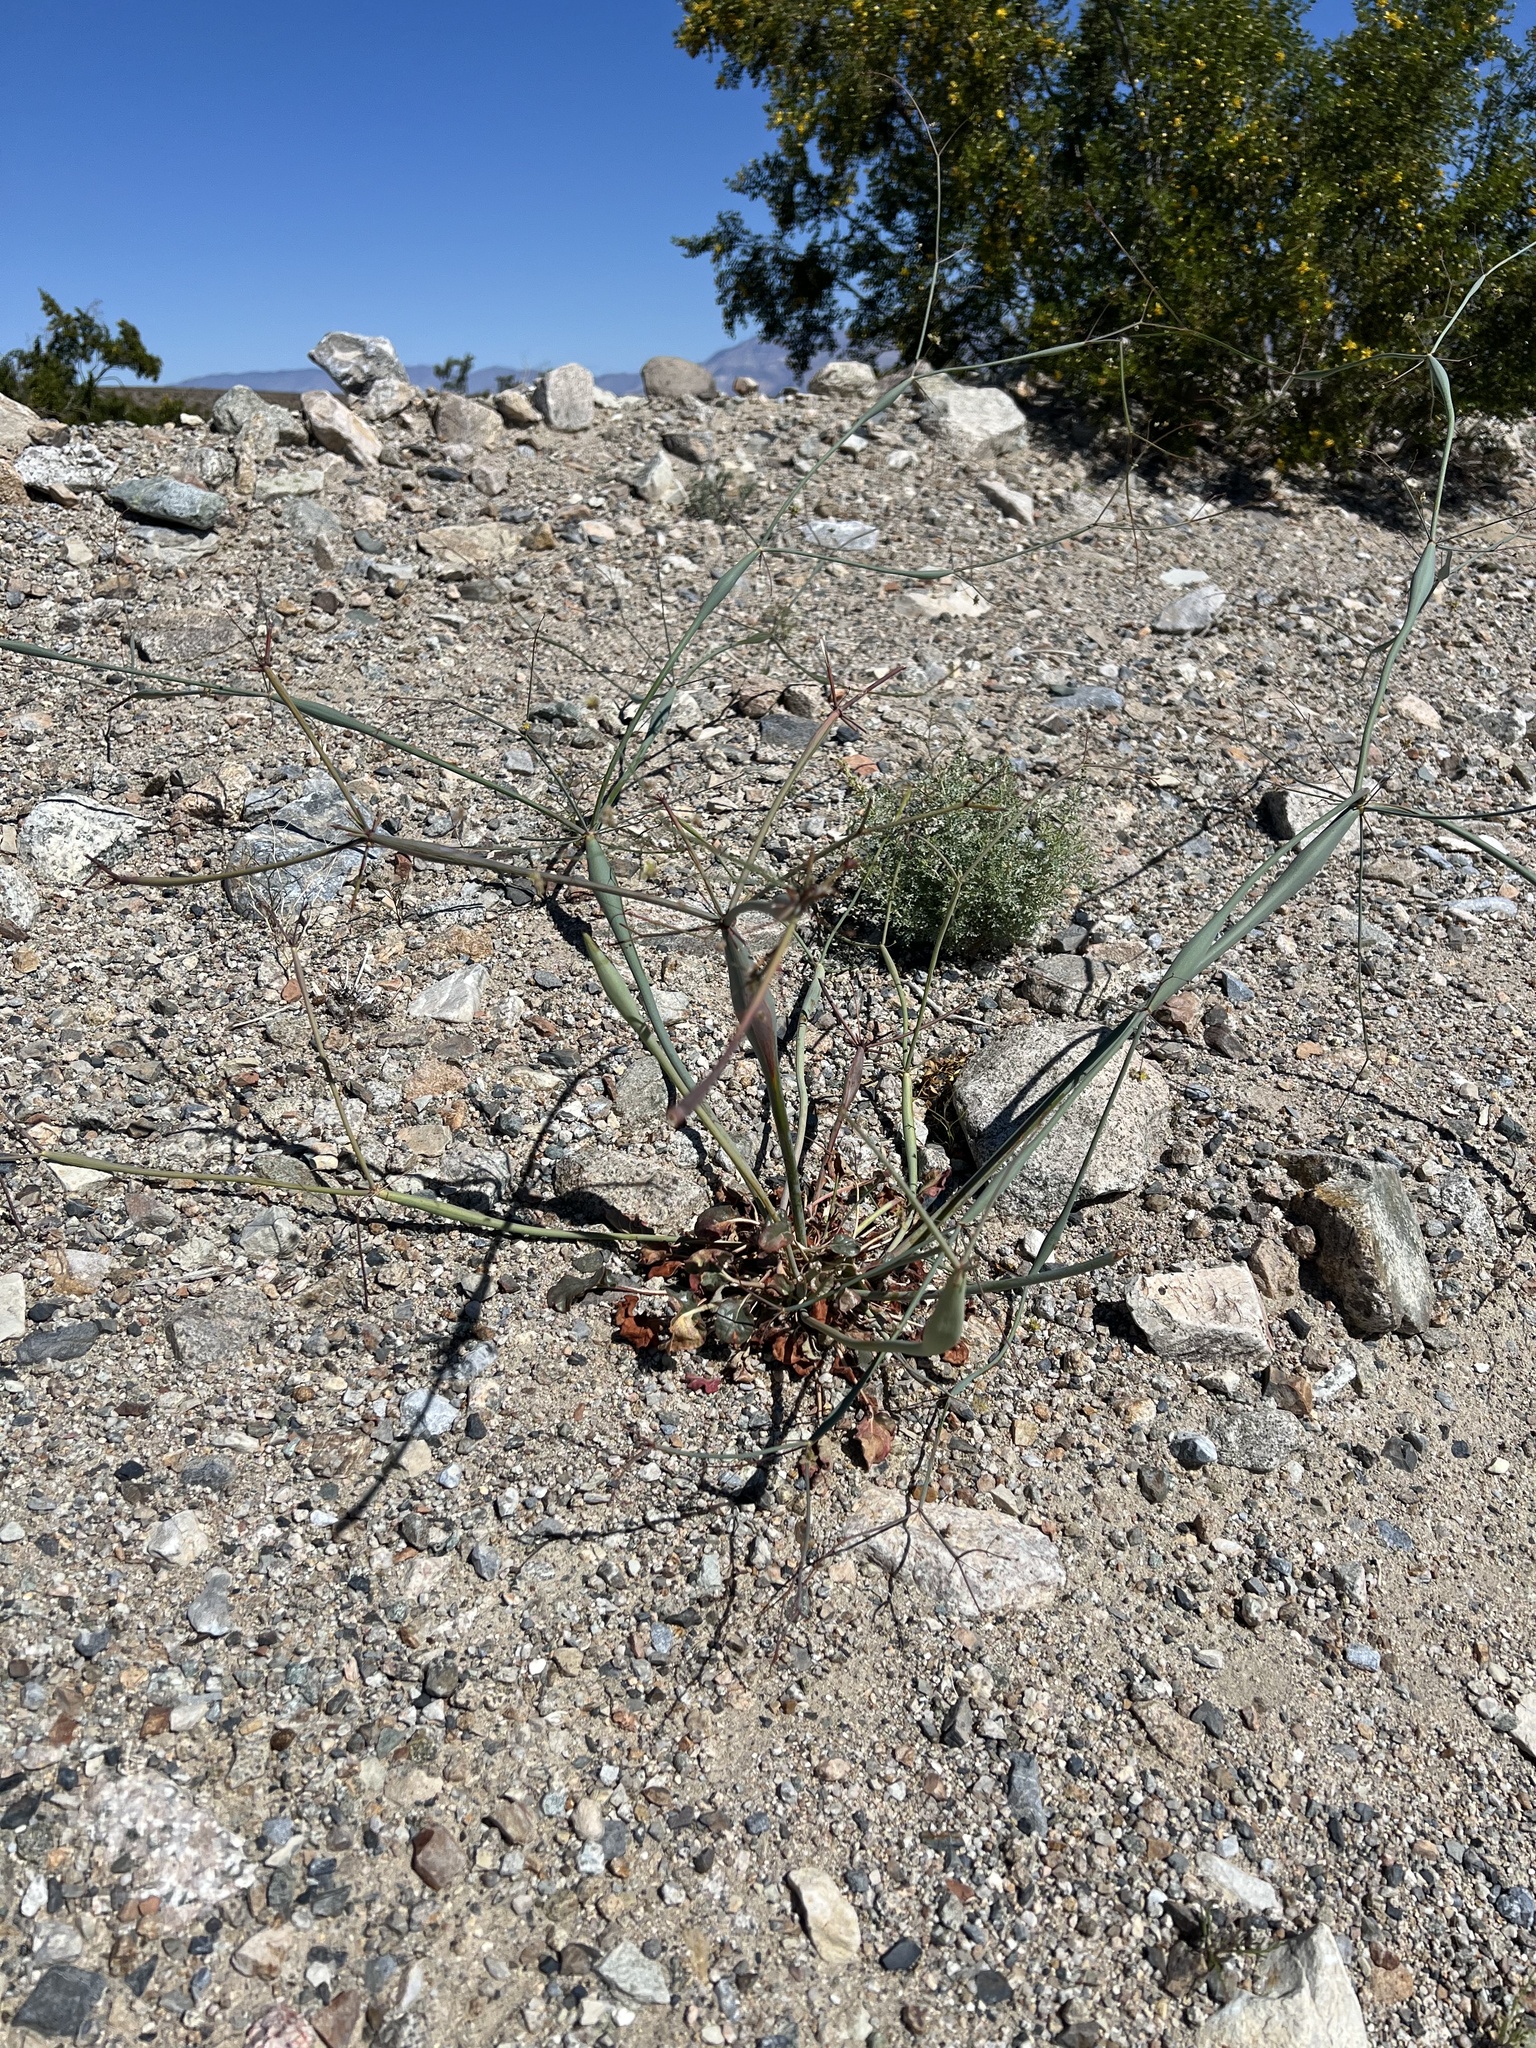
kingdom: Plantae
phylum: Tracheophyta
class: Magnoliopsida
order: Caryophyllales
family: Polygonaceae
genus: Eriogonum
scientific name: Eriogonum inflatum
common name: Desert trumpet
